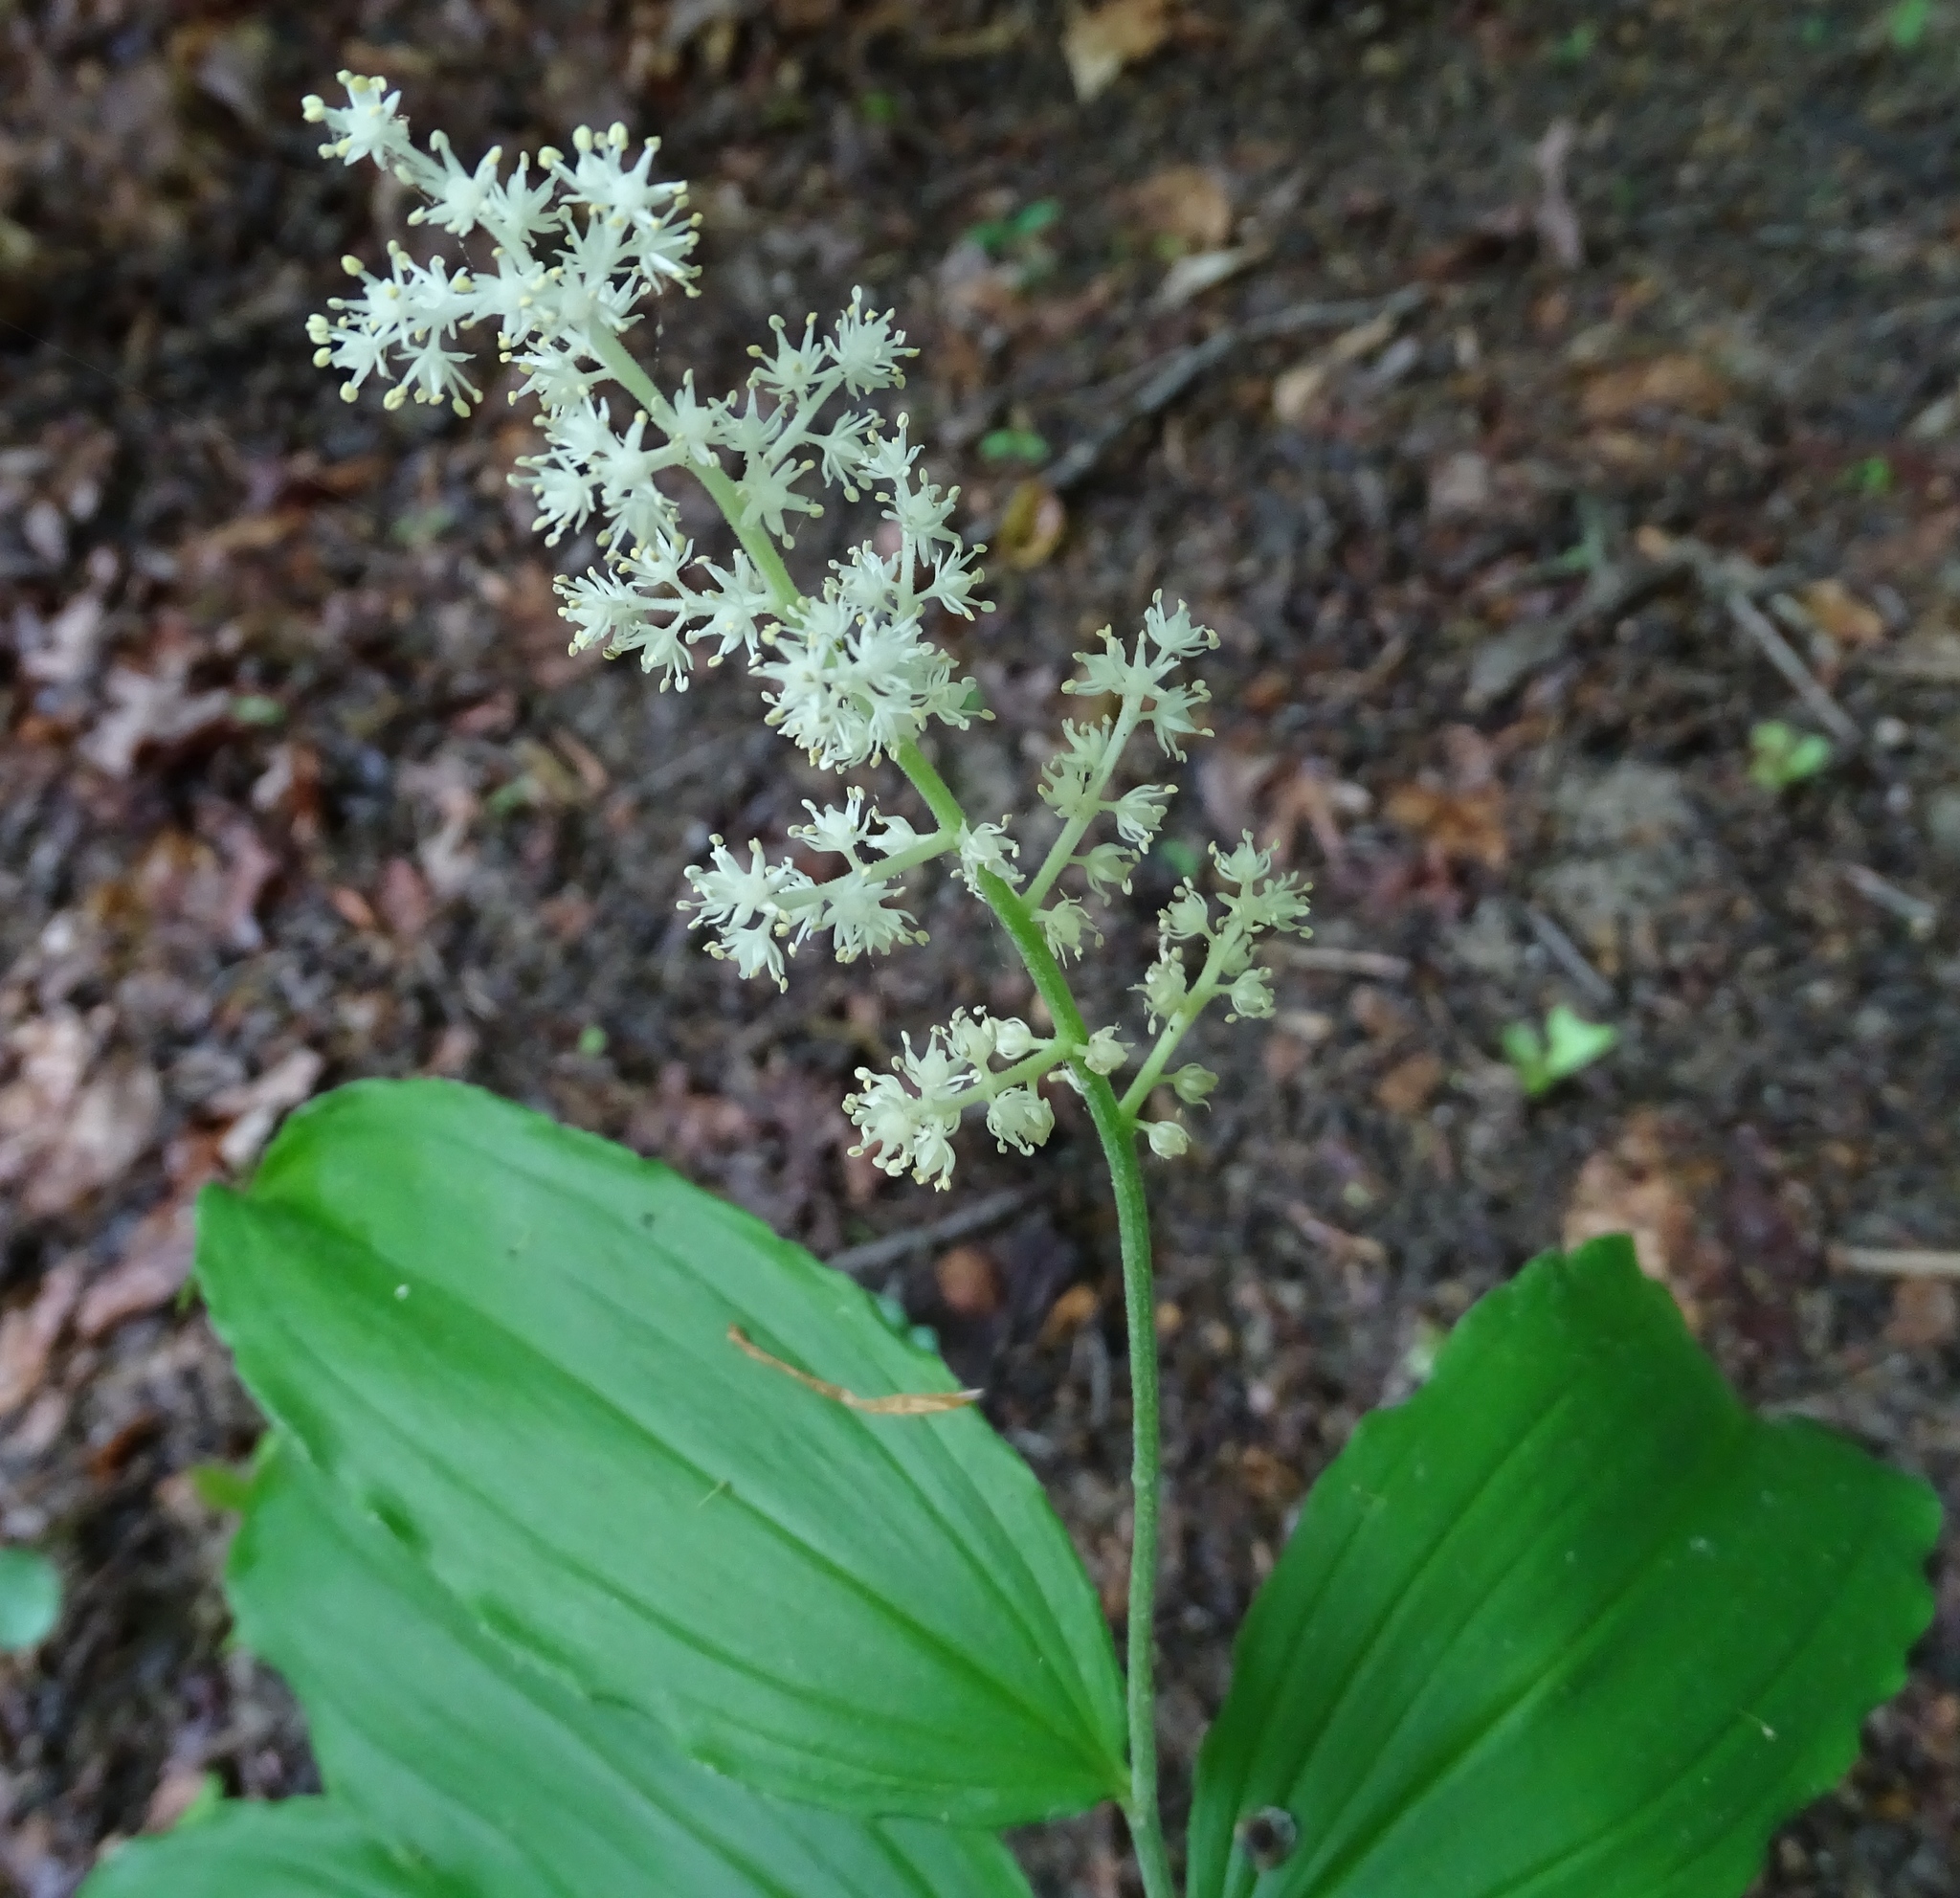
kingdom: Plantae
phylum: Tracheophyta
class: Liliopsida
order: Asparagales
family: Asparagaceae
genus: Maianthemum
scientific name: Maianthemum racemosum
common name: False spikenard
